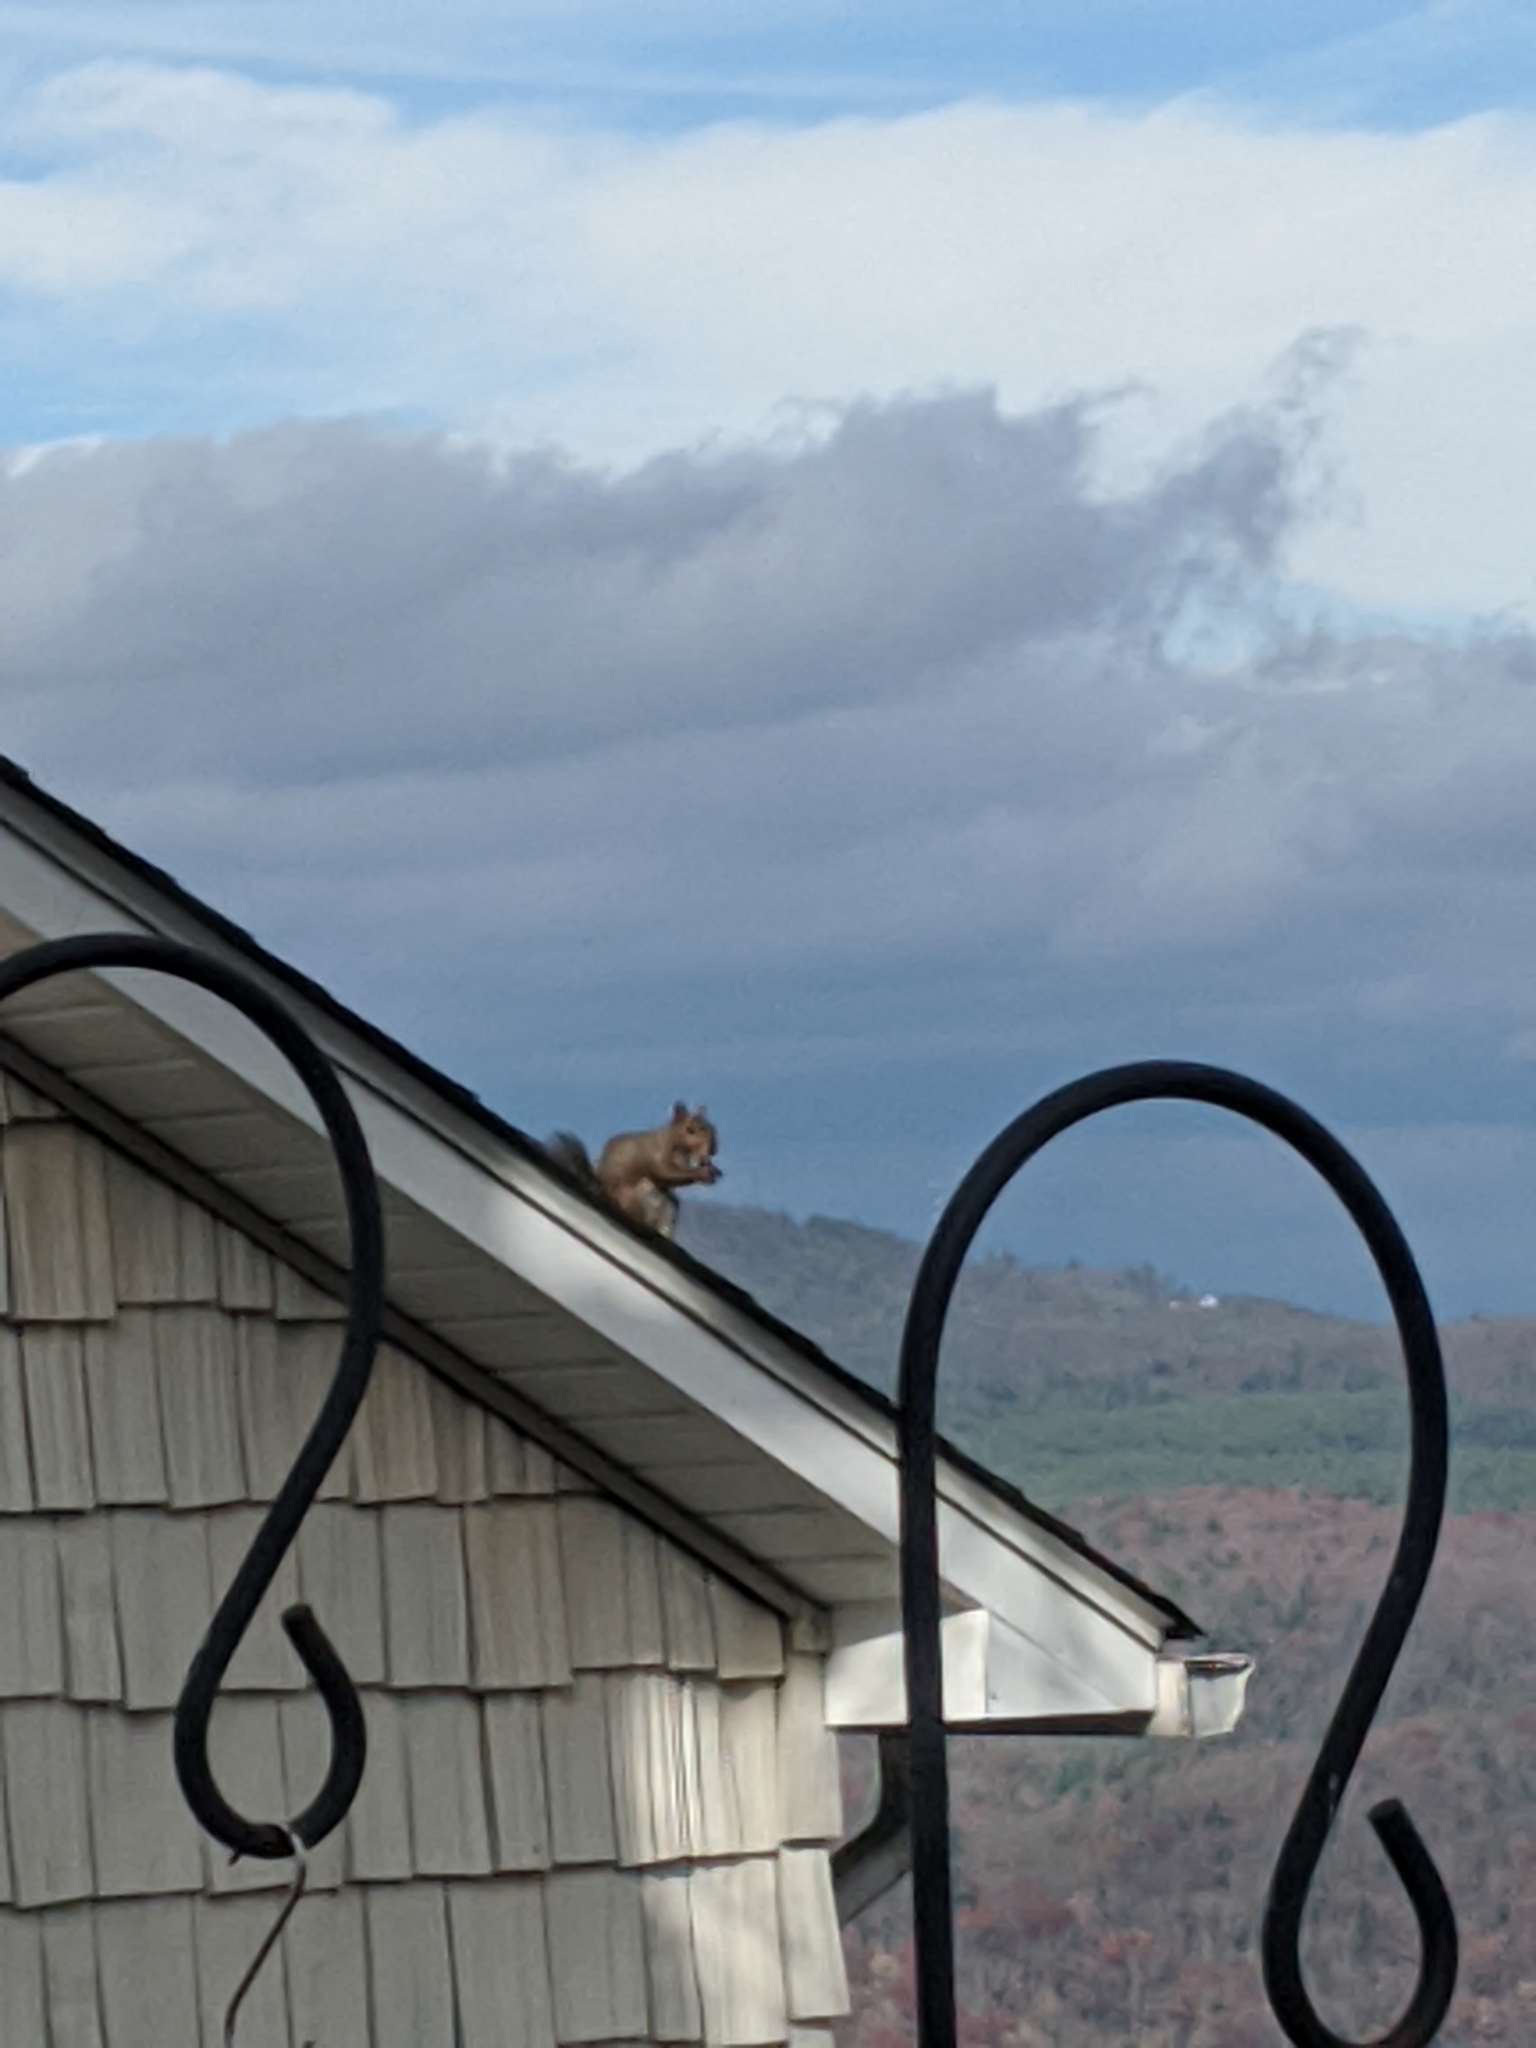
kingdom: Animalia
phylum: Chordata
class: Mammalia
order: Rodentia
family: Sciuridae
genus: Sciurus
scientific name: Sciurus carolinensis
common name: Eastern gray squirrel
